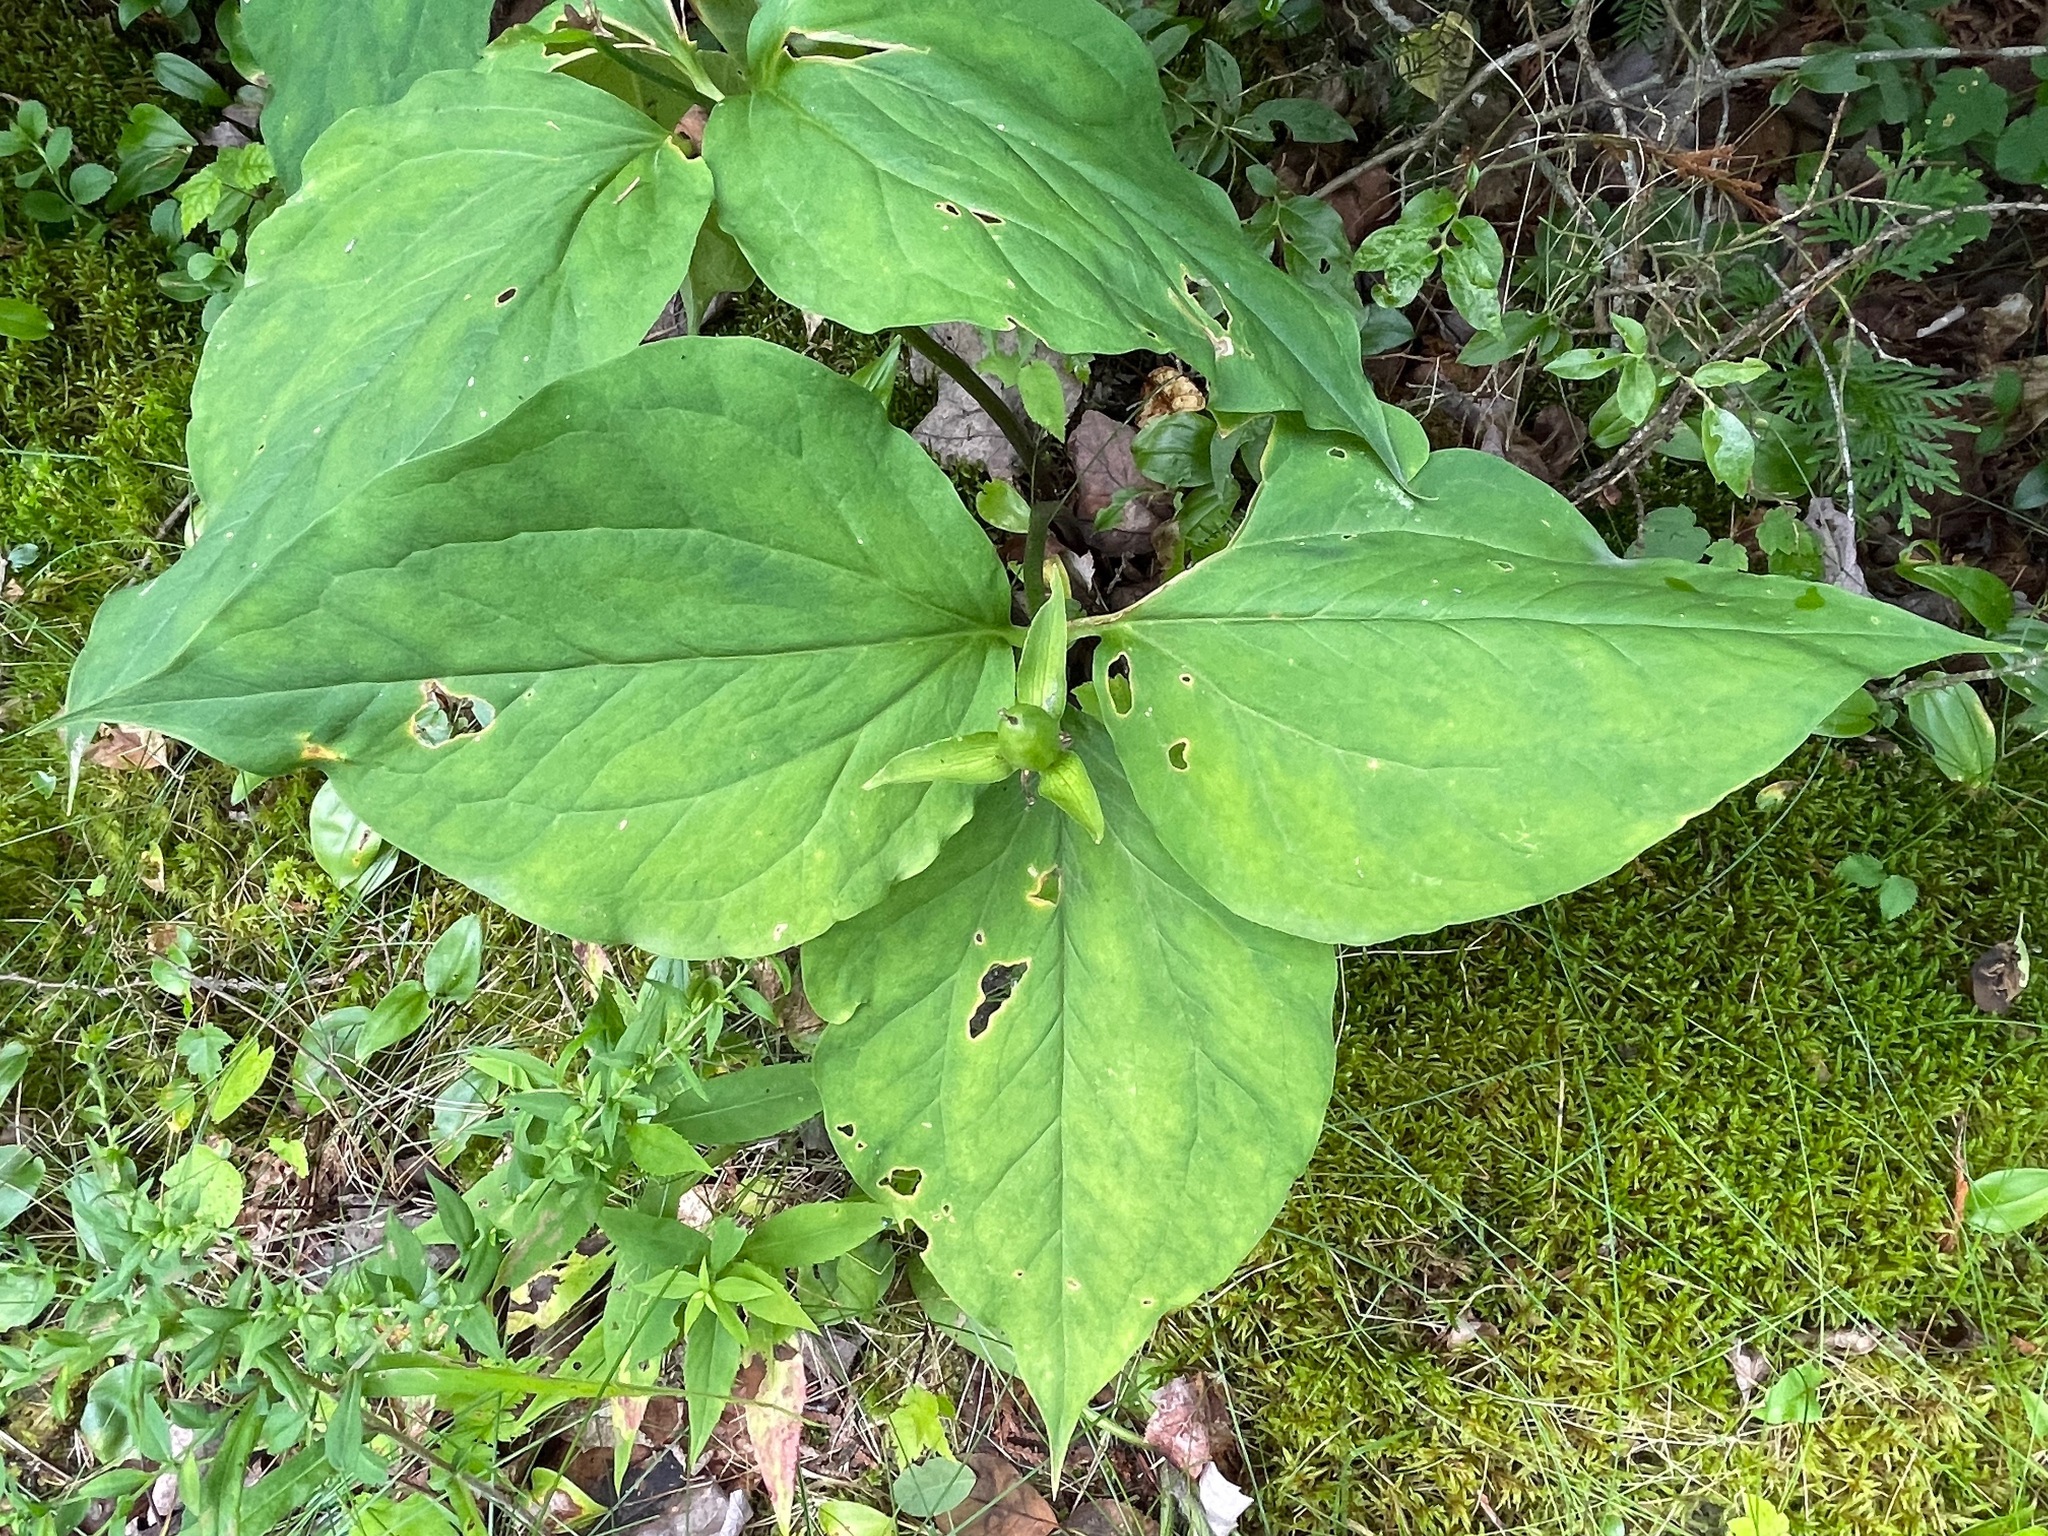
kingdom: Plantae
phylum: Tracheophyta
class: Liliopsida
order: Liliales
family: Melanthiaceae
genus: Trillium
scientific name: Trillium undulatum
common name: Paint trillium
